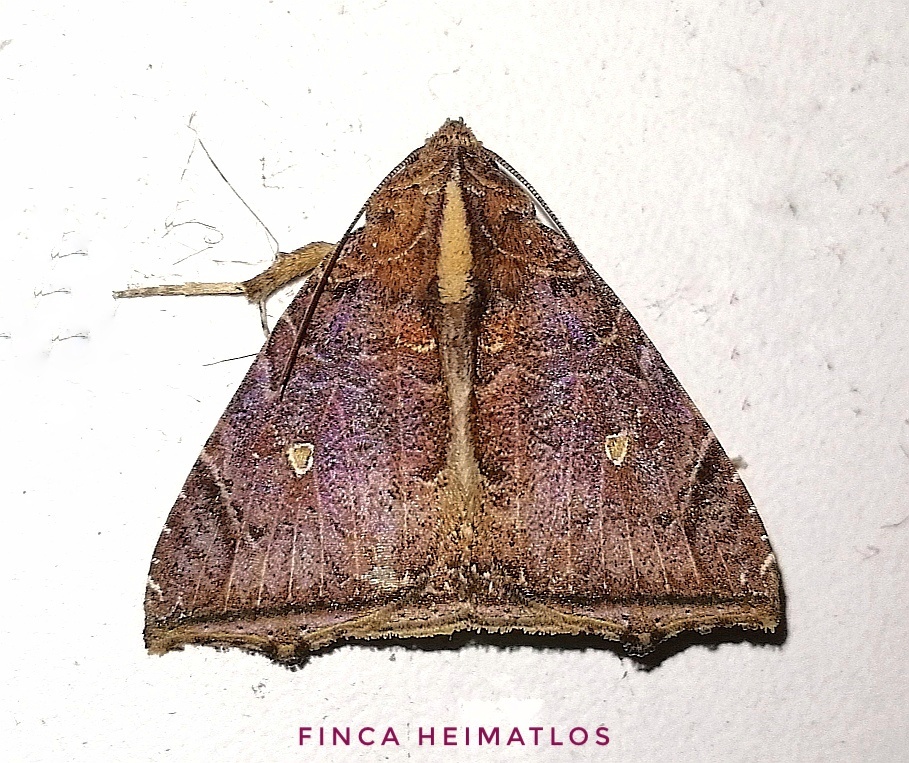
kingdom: Animalia
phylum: Arthropoda
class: Insecta
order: Lepidoptera
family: Erebidae
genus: Pseudophisma
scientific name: Pseudophisma pritanis
